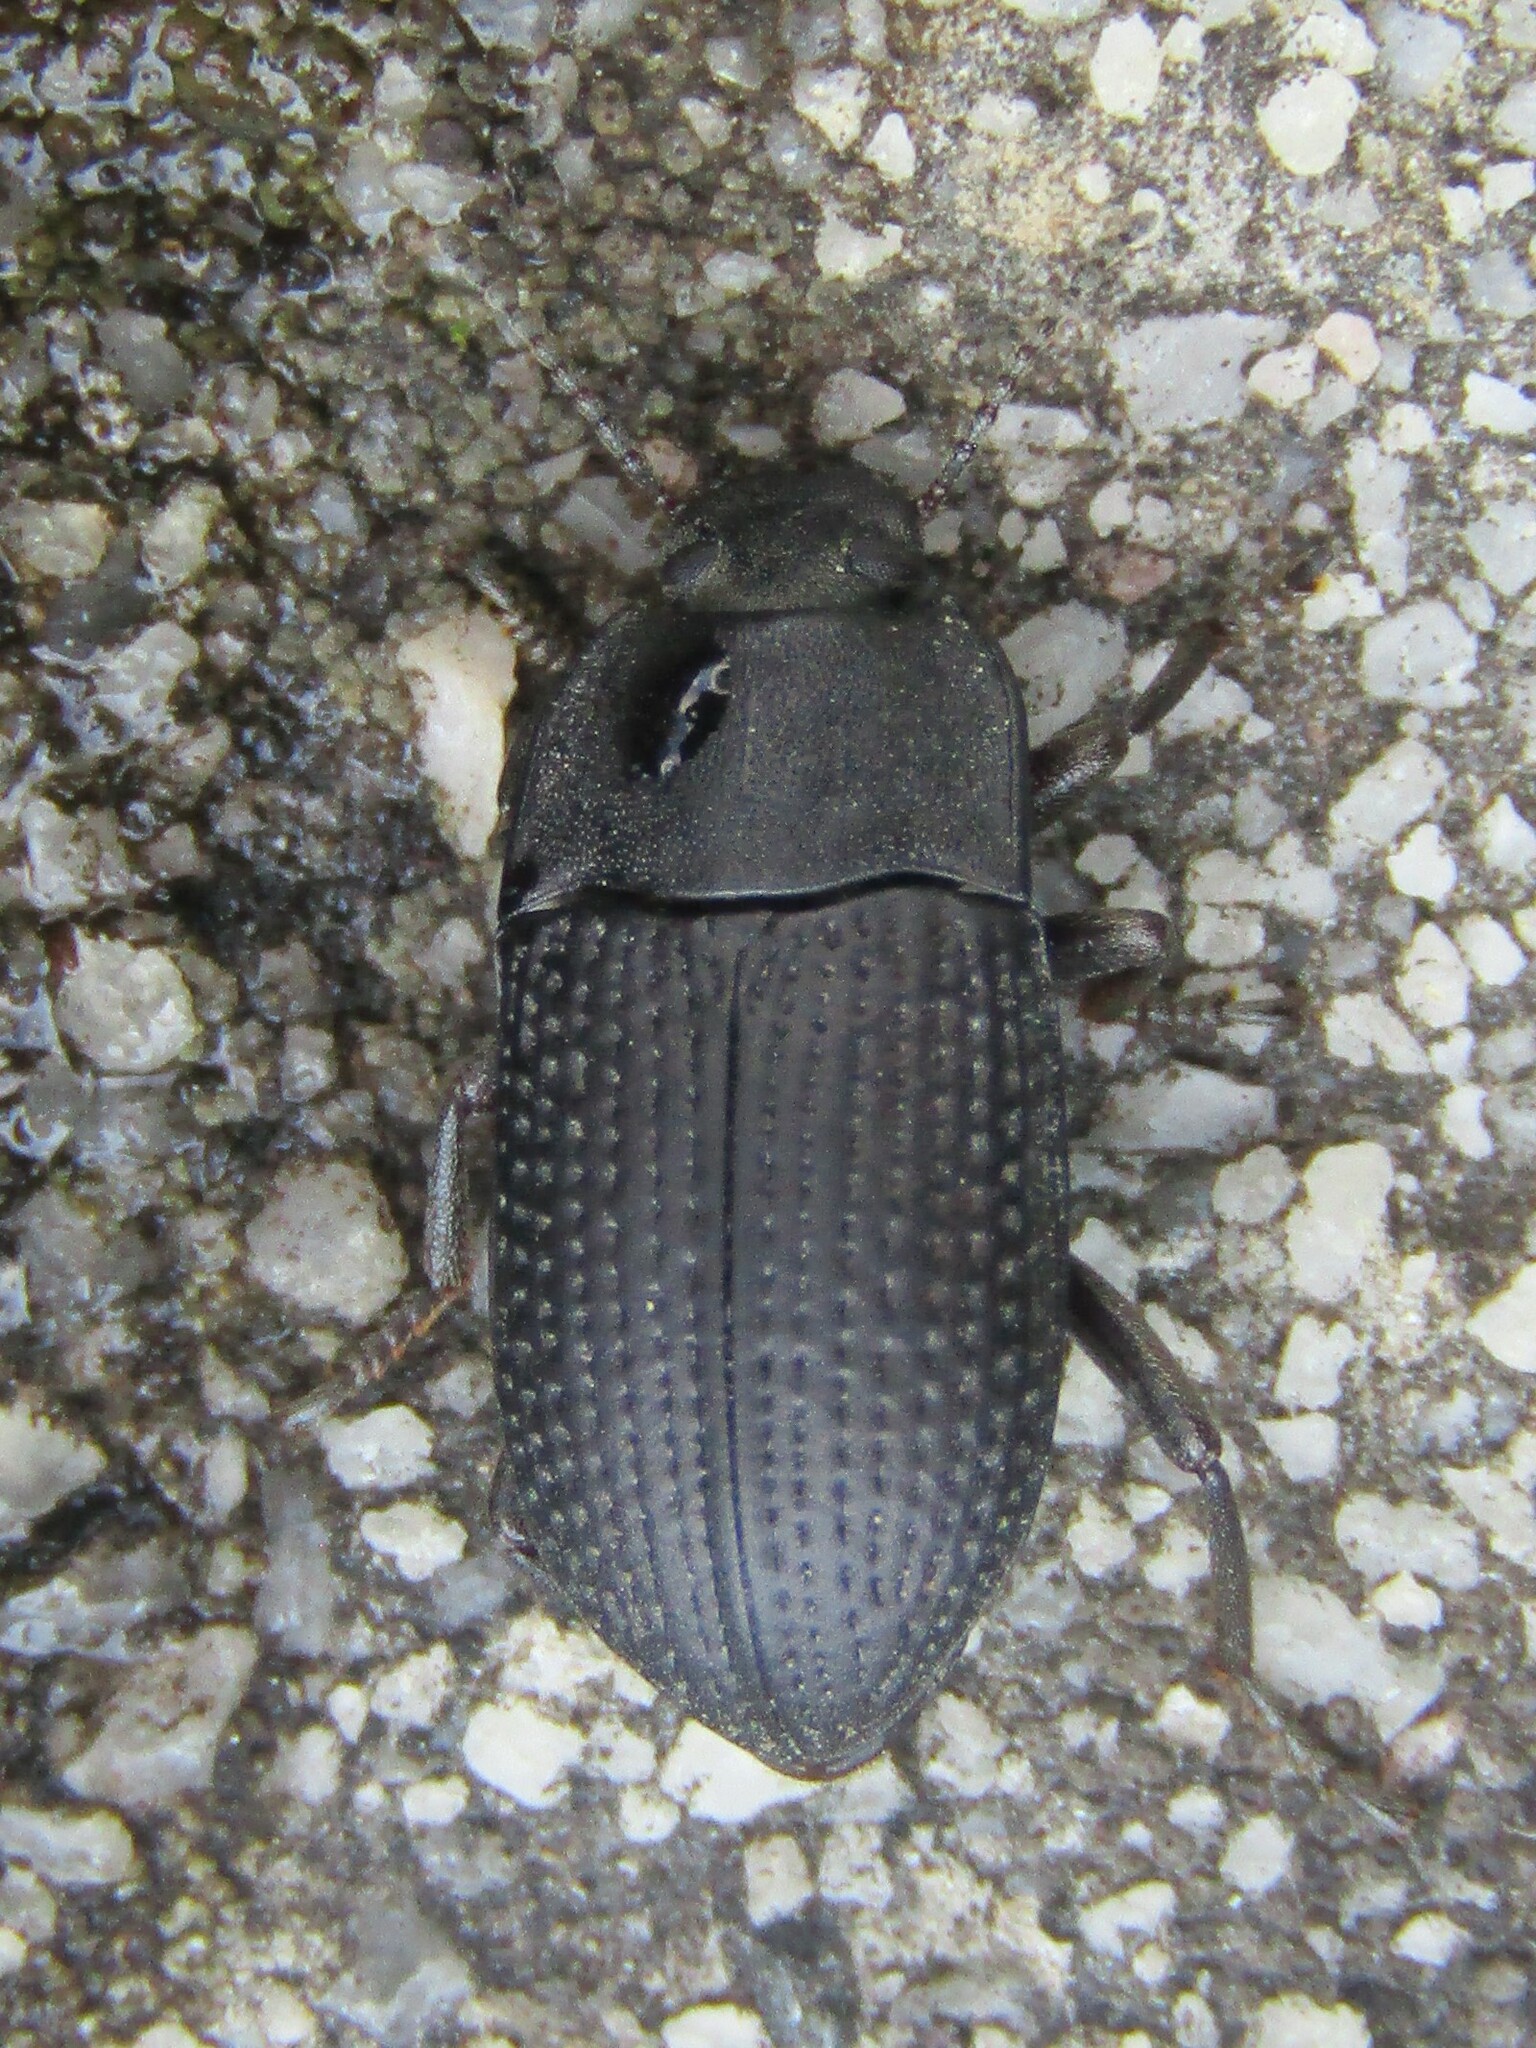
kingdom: Animalia
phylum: Arthropoda
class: Insecta
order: Coleoptera
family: Tenebrionidae
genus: Asiopus
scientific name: Asiopus
